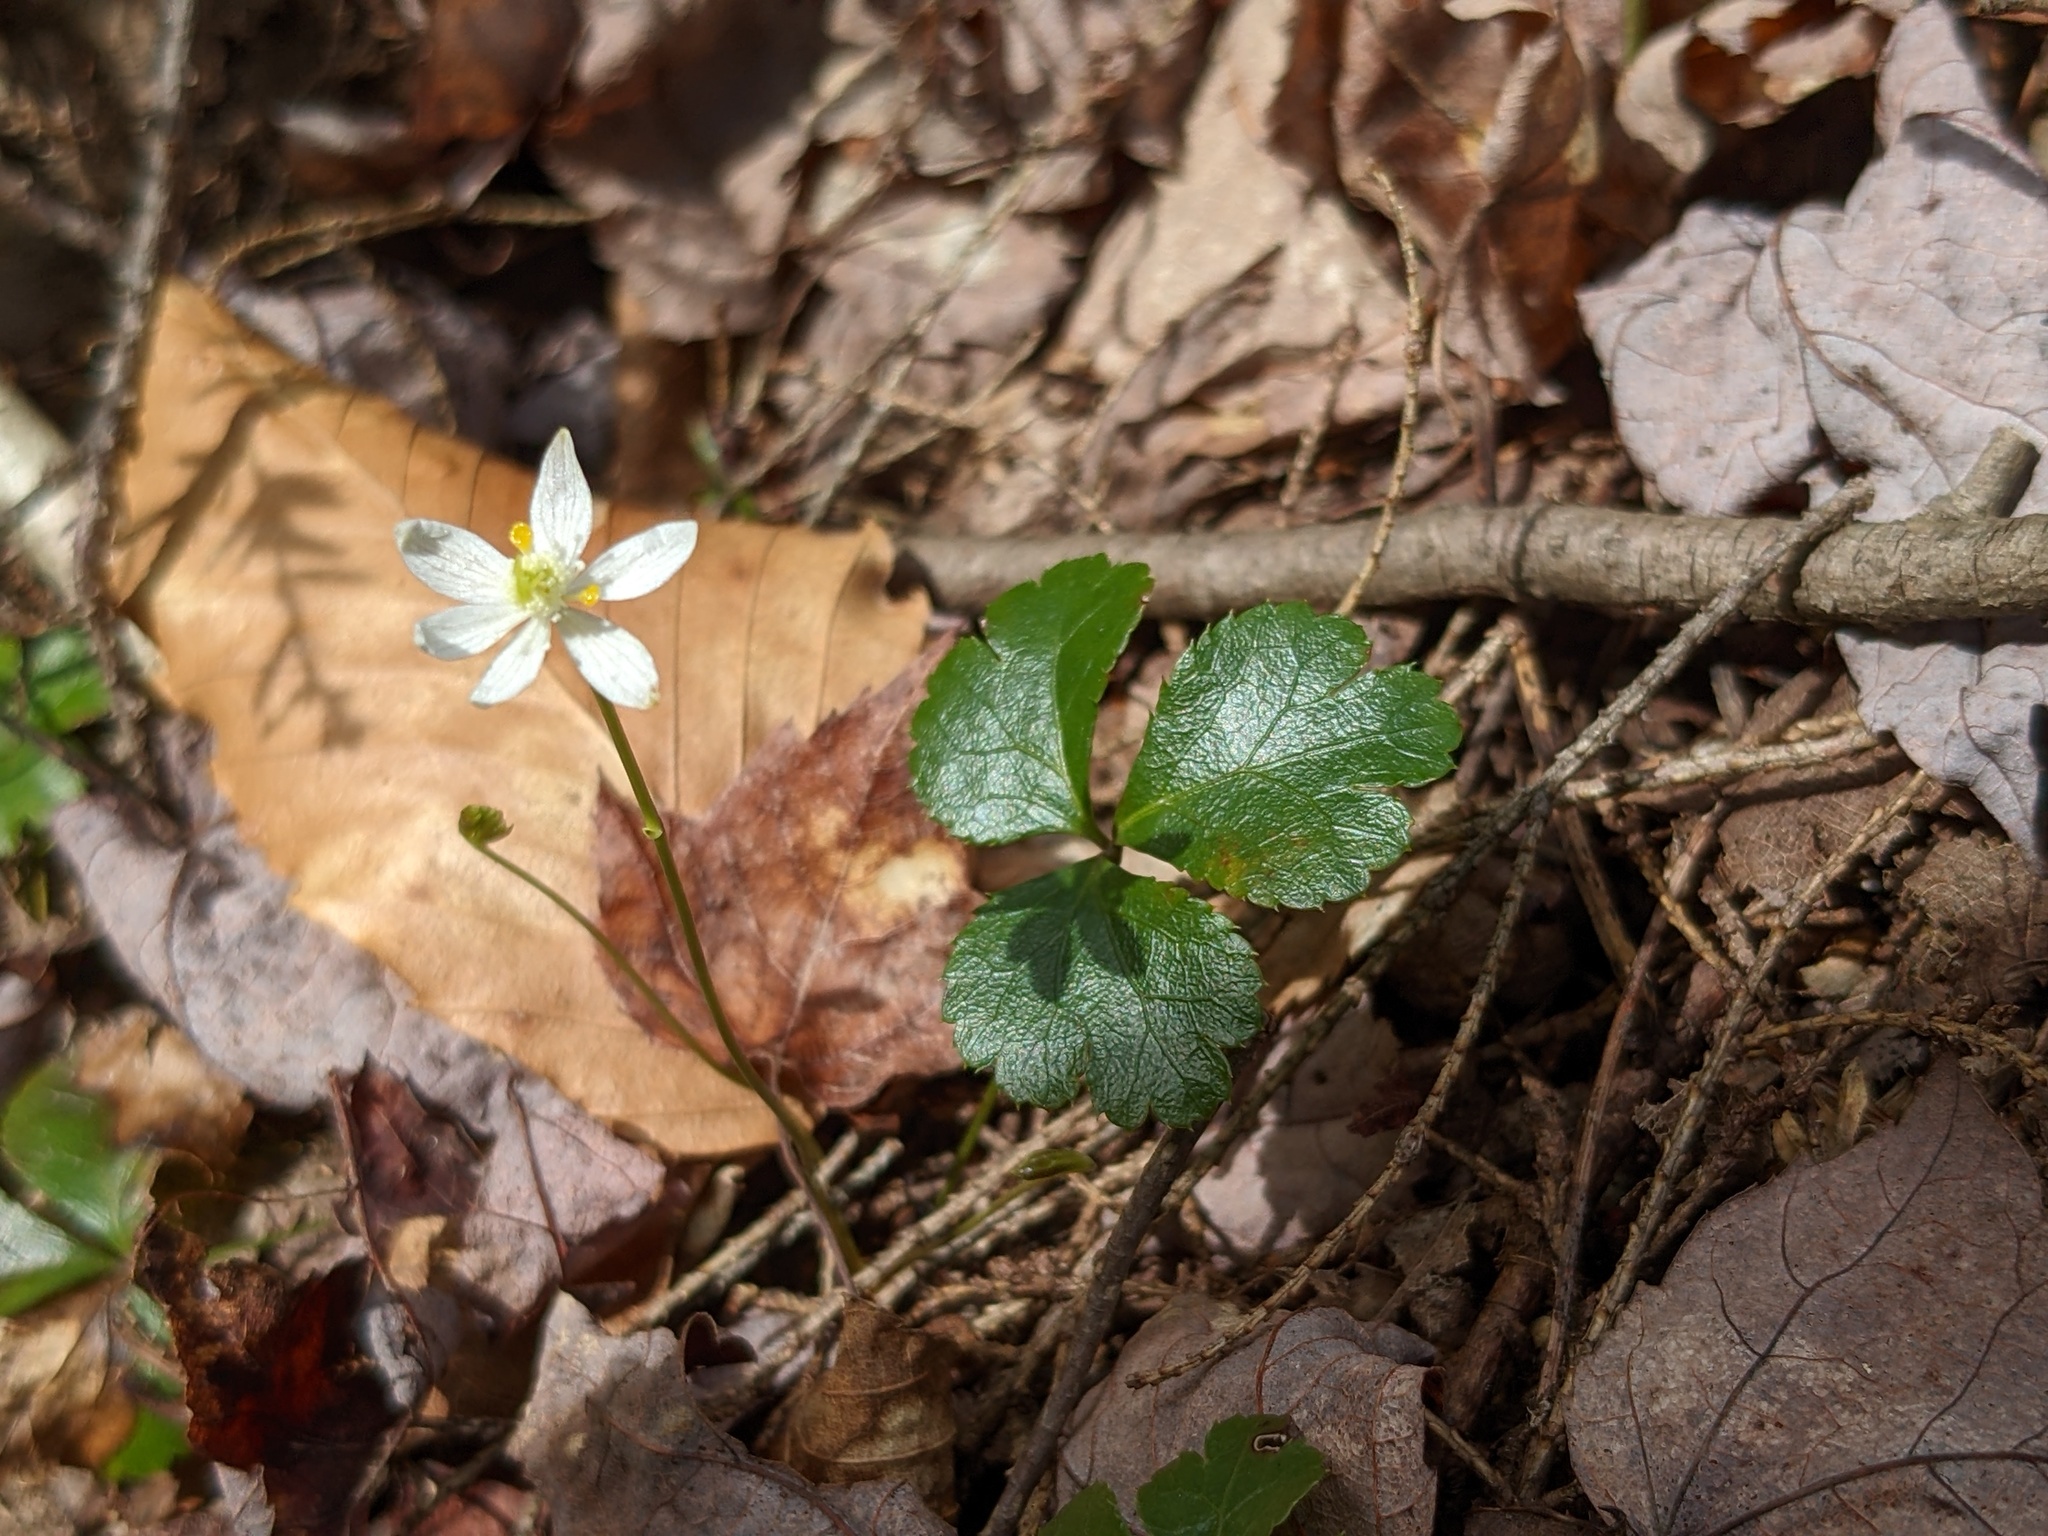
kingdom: Plantae
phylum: Tracheophyta
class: Magnoliopsida
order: Ranunculales
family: Ranunculaceae
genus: Coptis
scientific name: Coptis trifolia
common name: Canker-root
